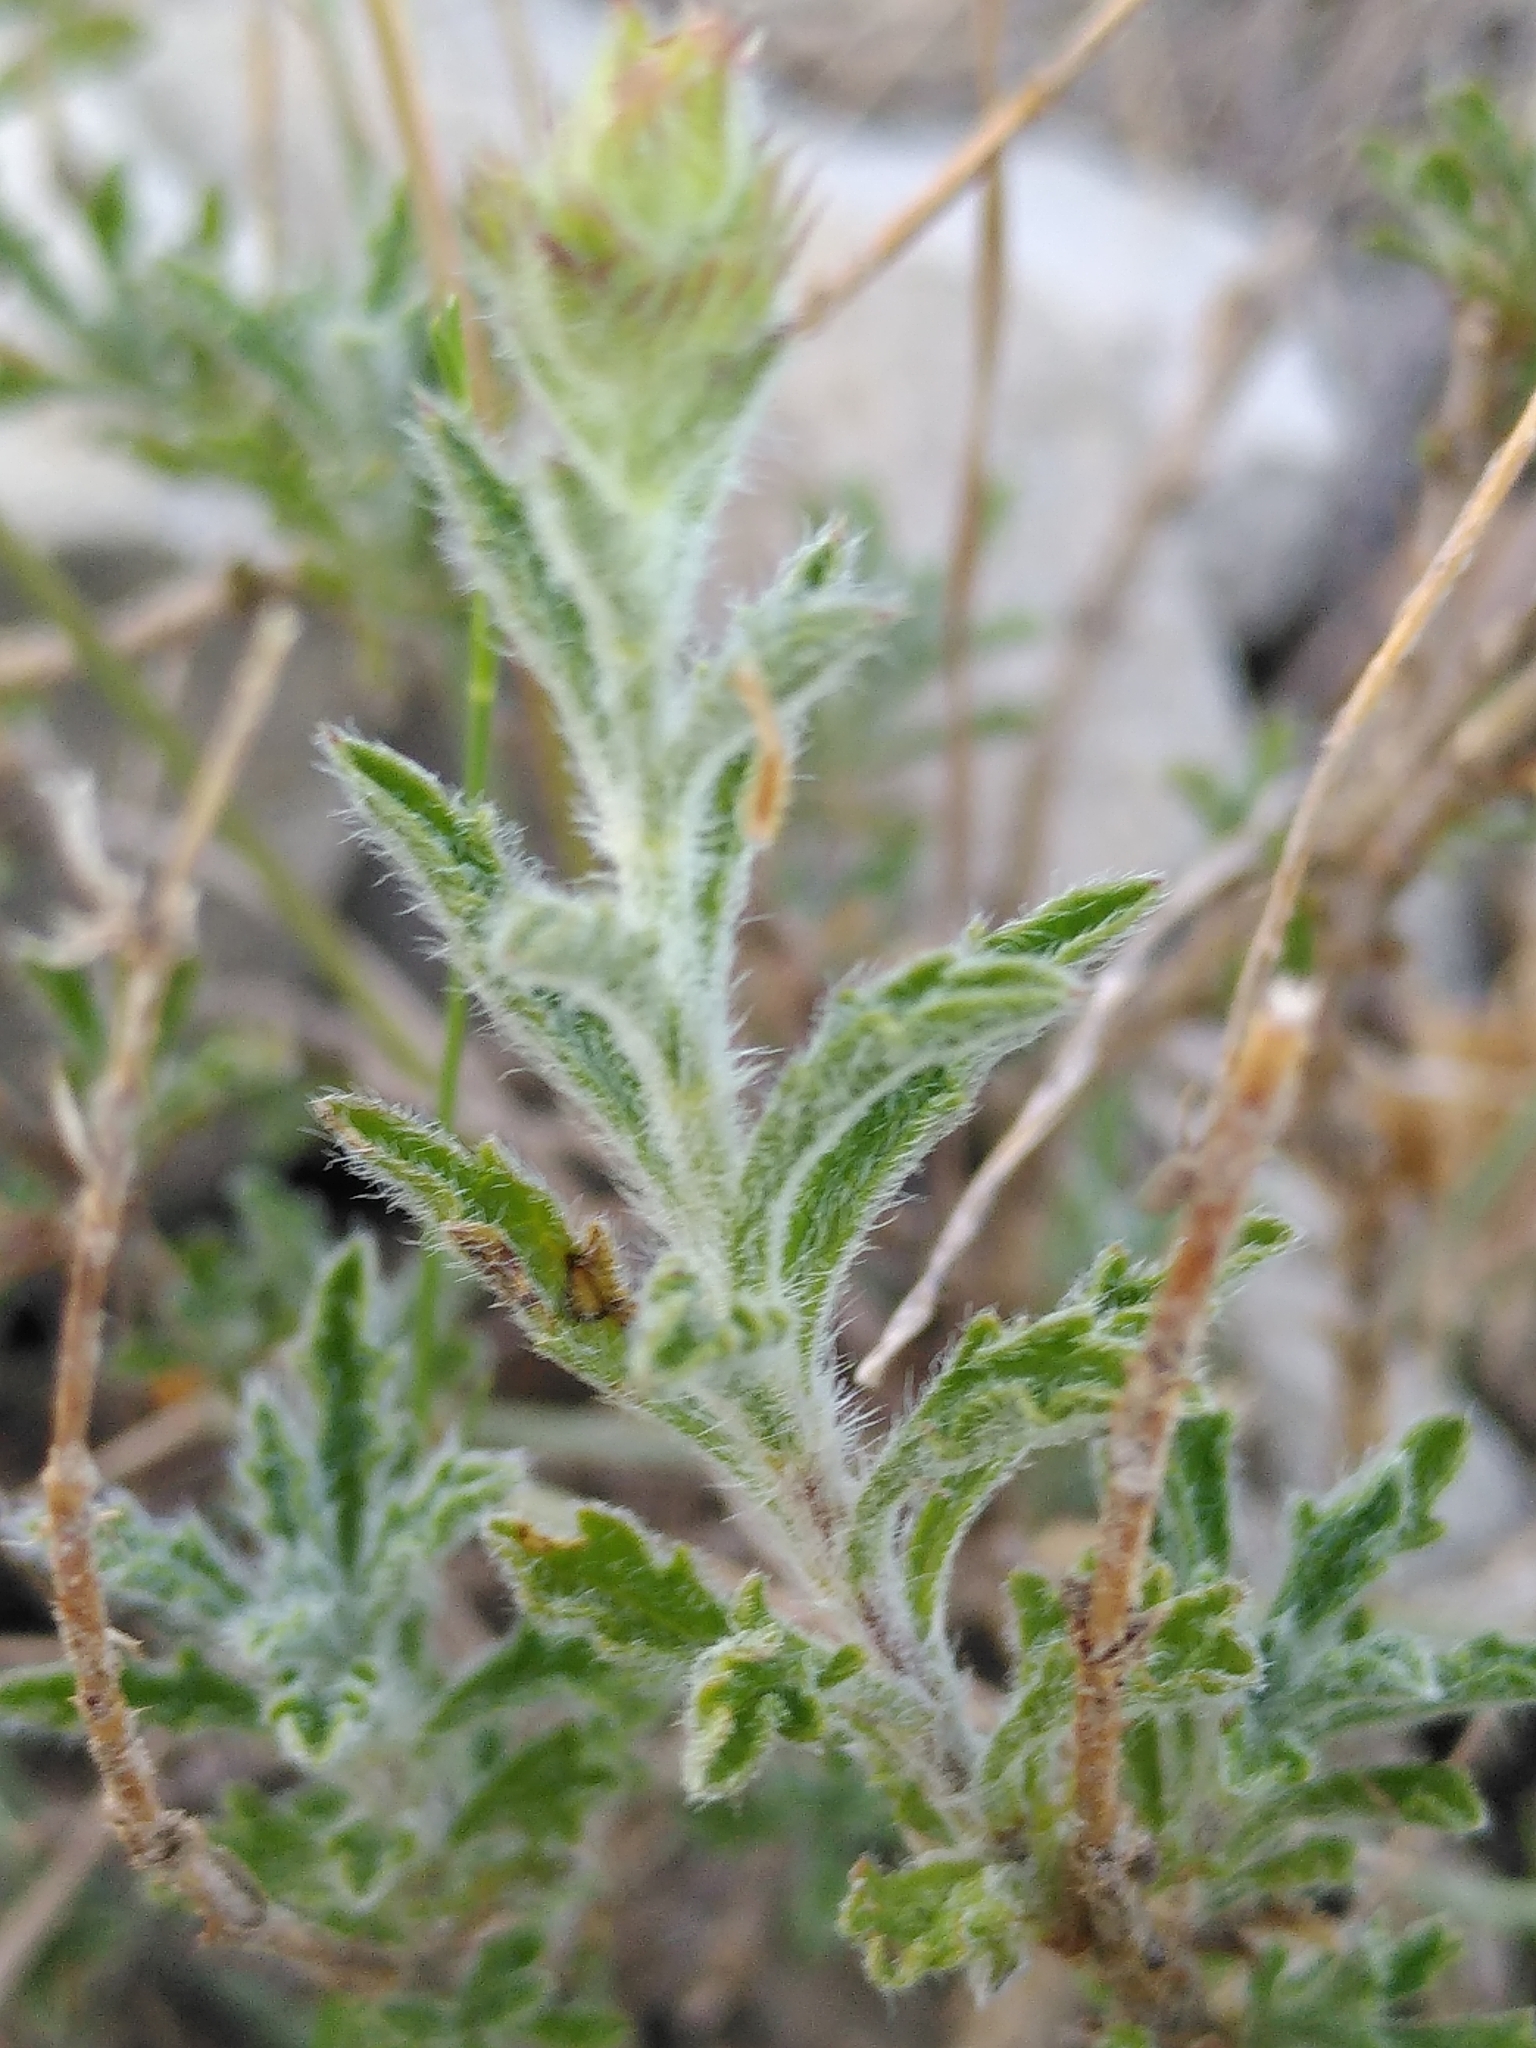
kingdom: Plantae
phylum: Tracheophyta
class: Magnoliopsida
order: Lamiales
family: Lamiaceae
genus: Sideritis
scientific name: Sideritis fruticulosa
